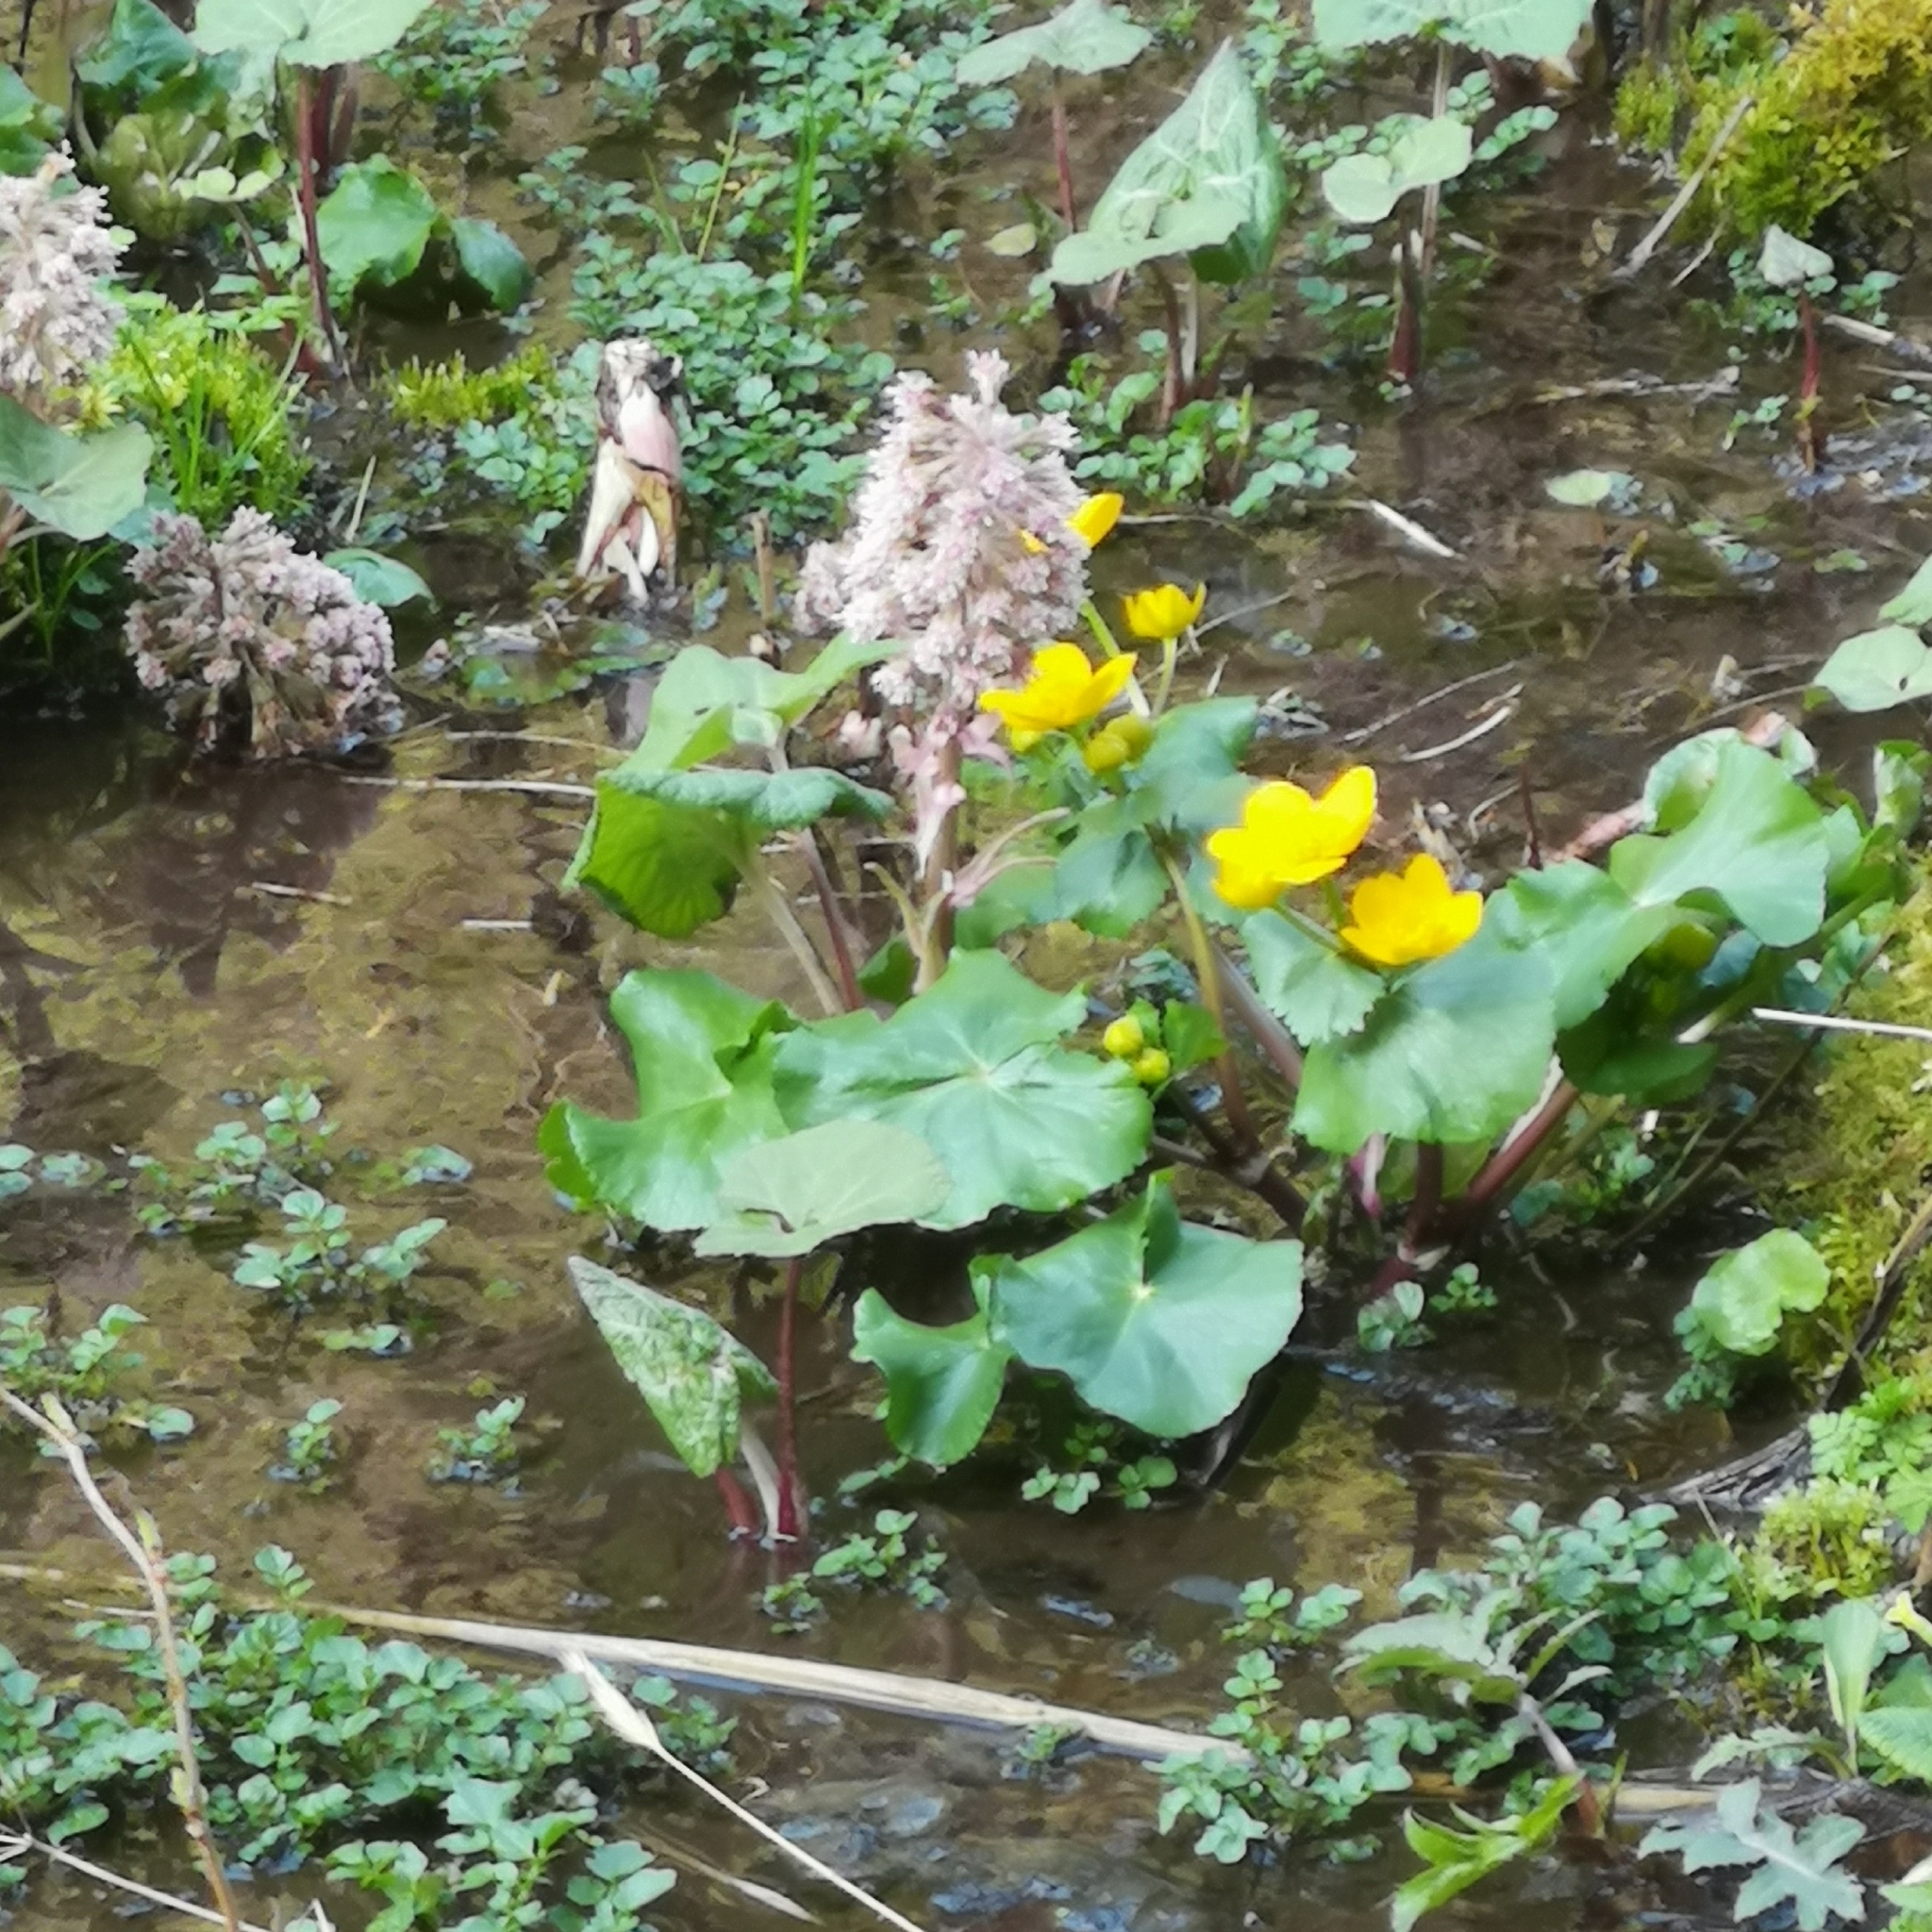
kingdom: Plantae
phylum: Tracheophyta
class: Magnoliopsida
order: Ranunculales
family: Ranunculaceae
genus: Caltha
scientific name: Caltha palustris
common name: Marsh marigold
